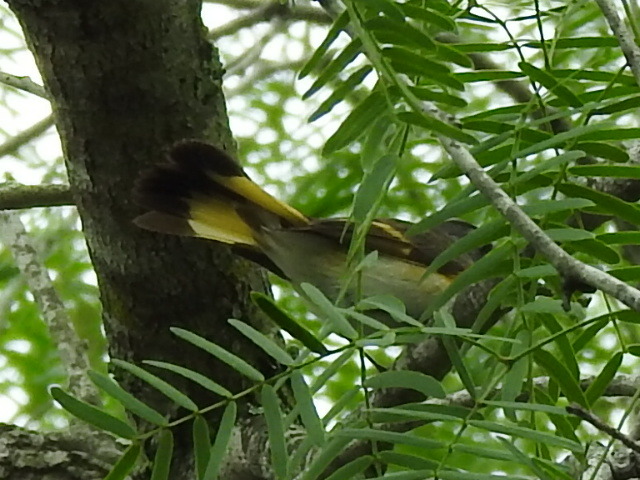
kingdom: Animalia
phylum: Chordata
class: Aves
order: Passeriformes
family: Parulidae
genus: Setophaga
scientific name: Setophaga ruticilla
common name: American redstart
